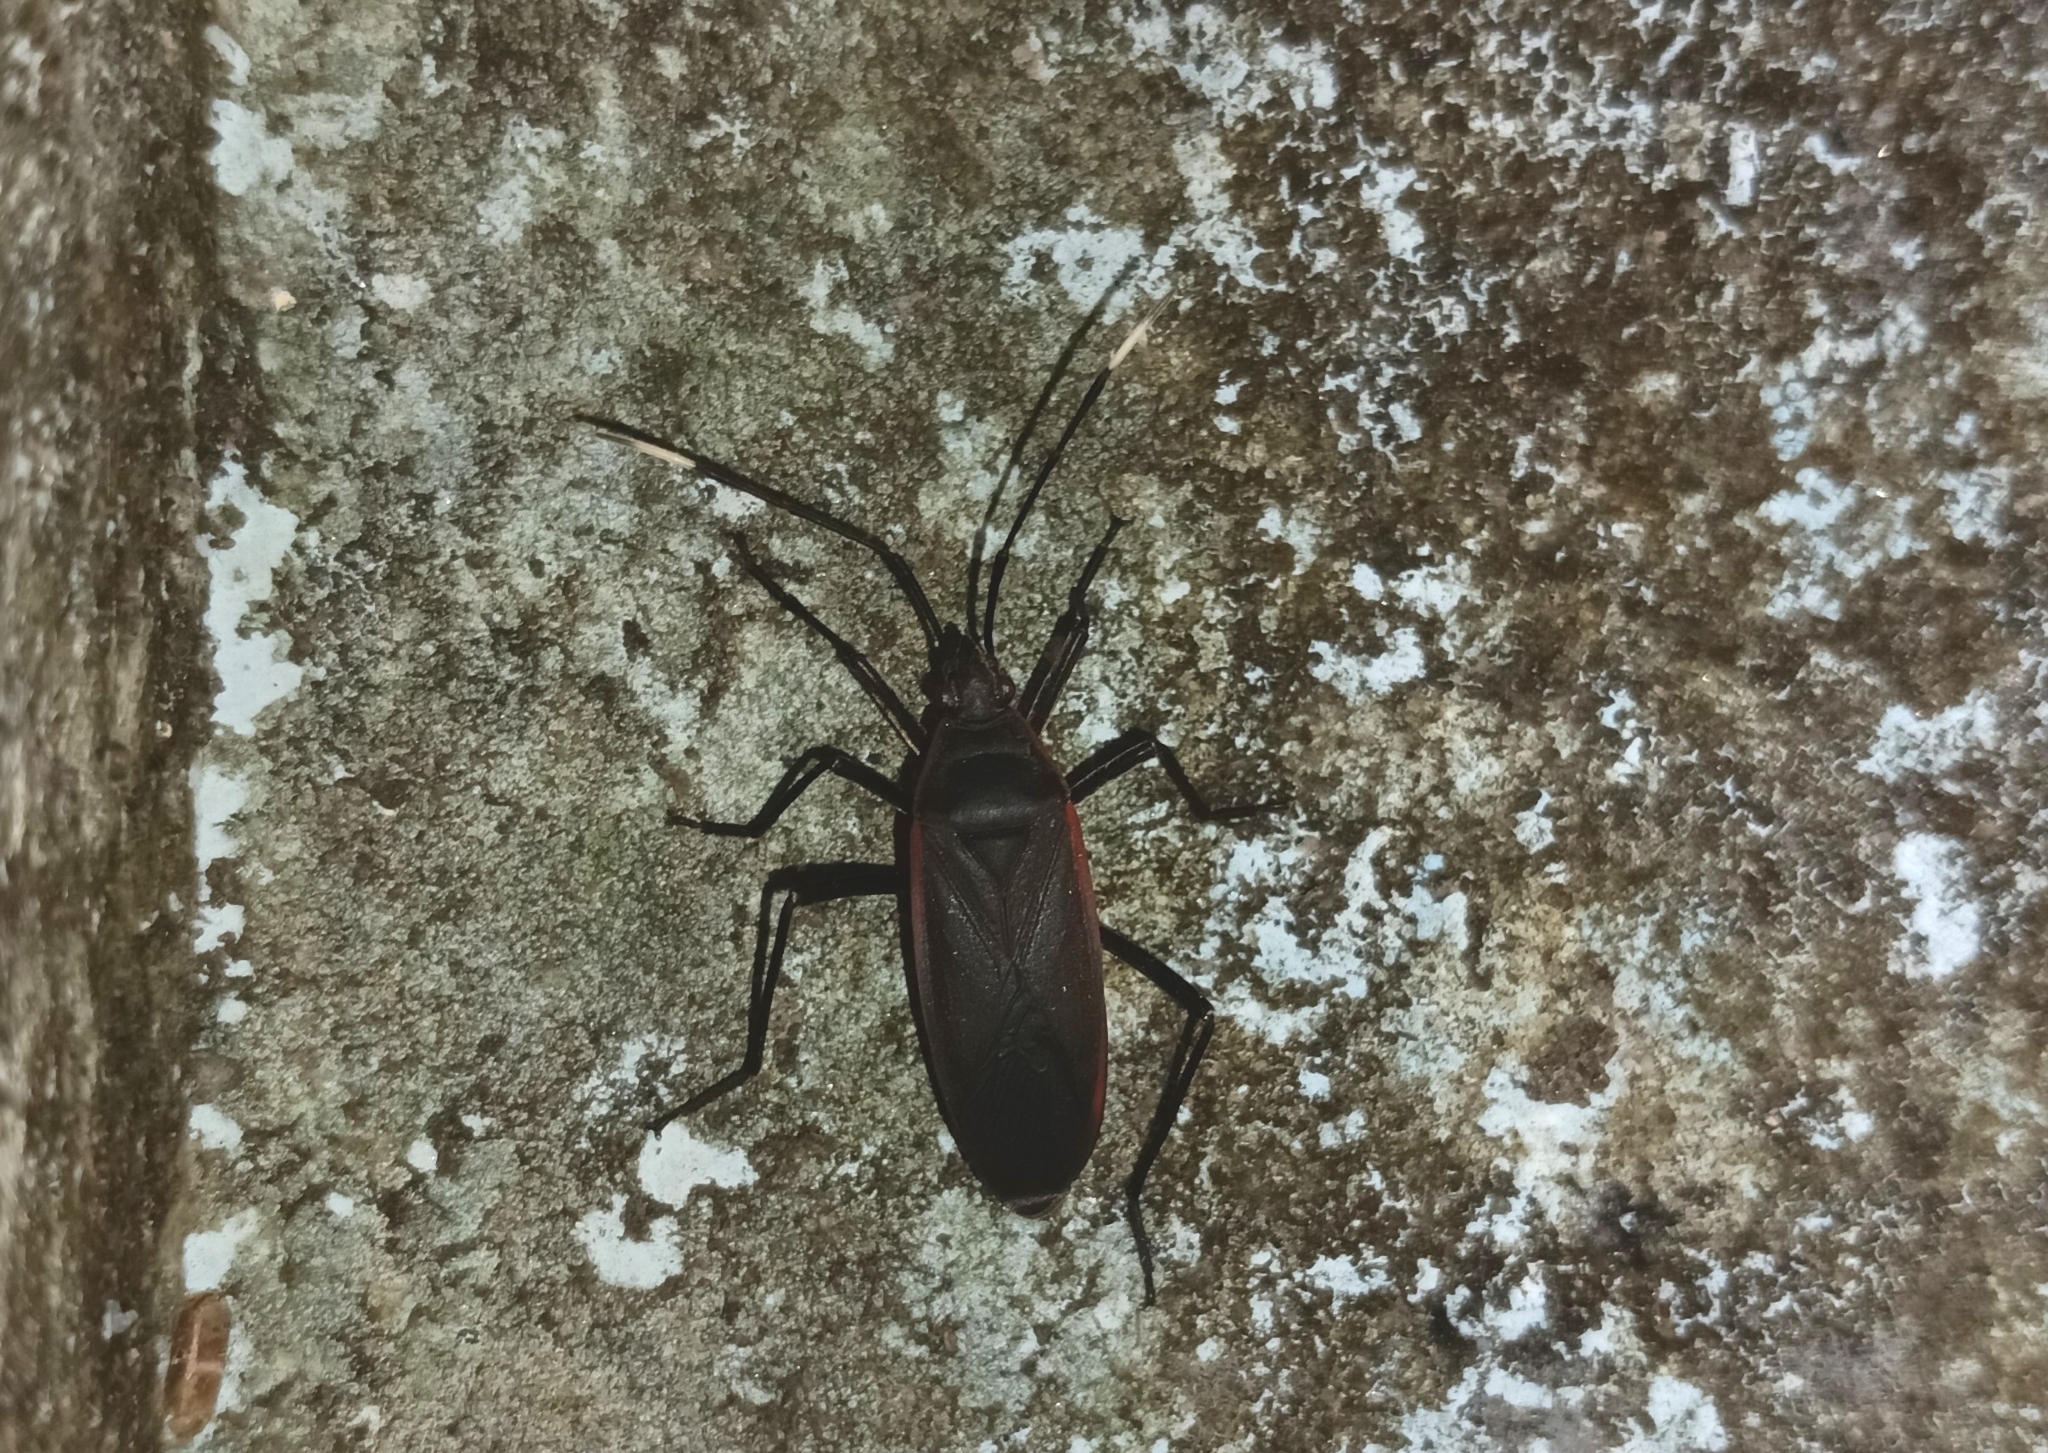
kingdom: Animalia
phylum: Arthropoda
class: Insecta
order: Hemiptera
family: Pyrrhocoridae
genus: Melamphaus
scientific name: Melamphaus
